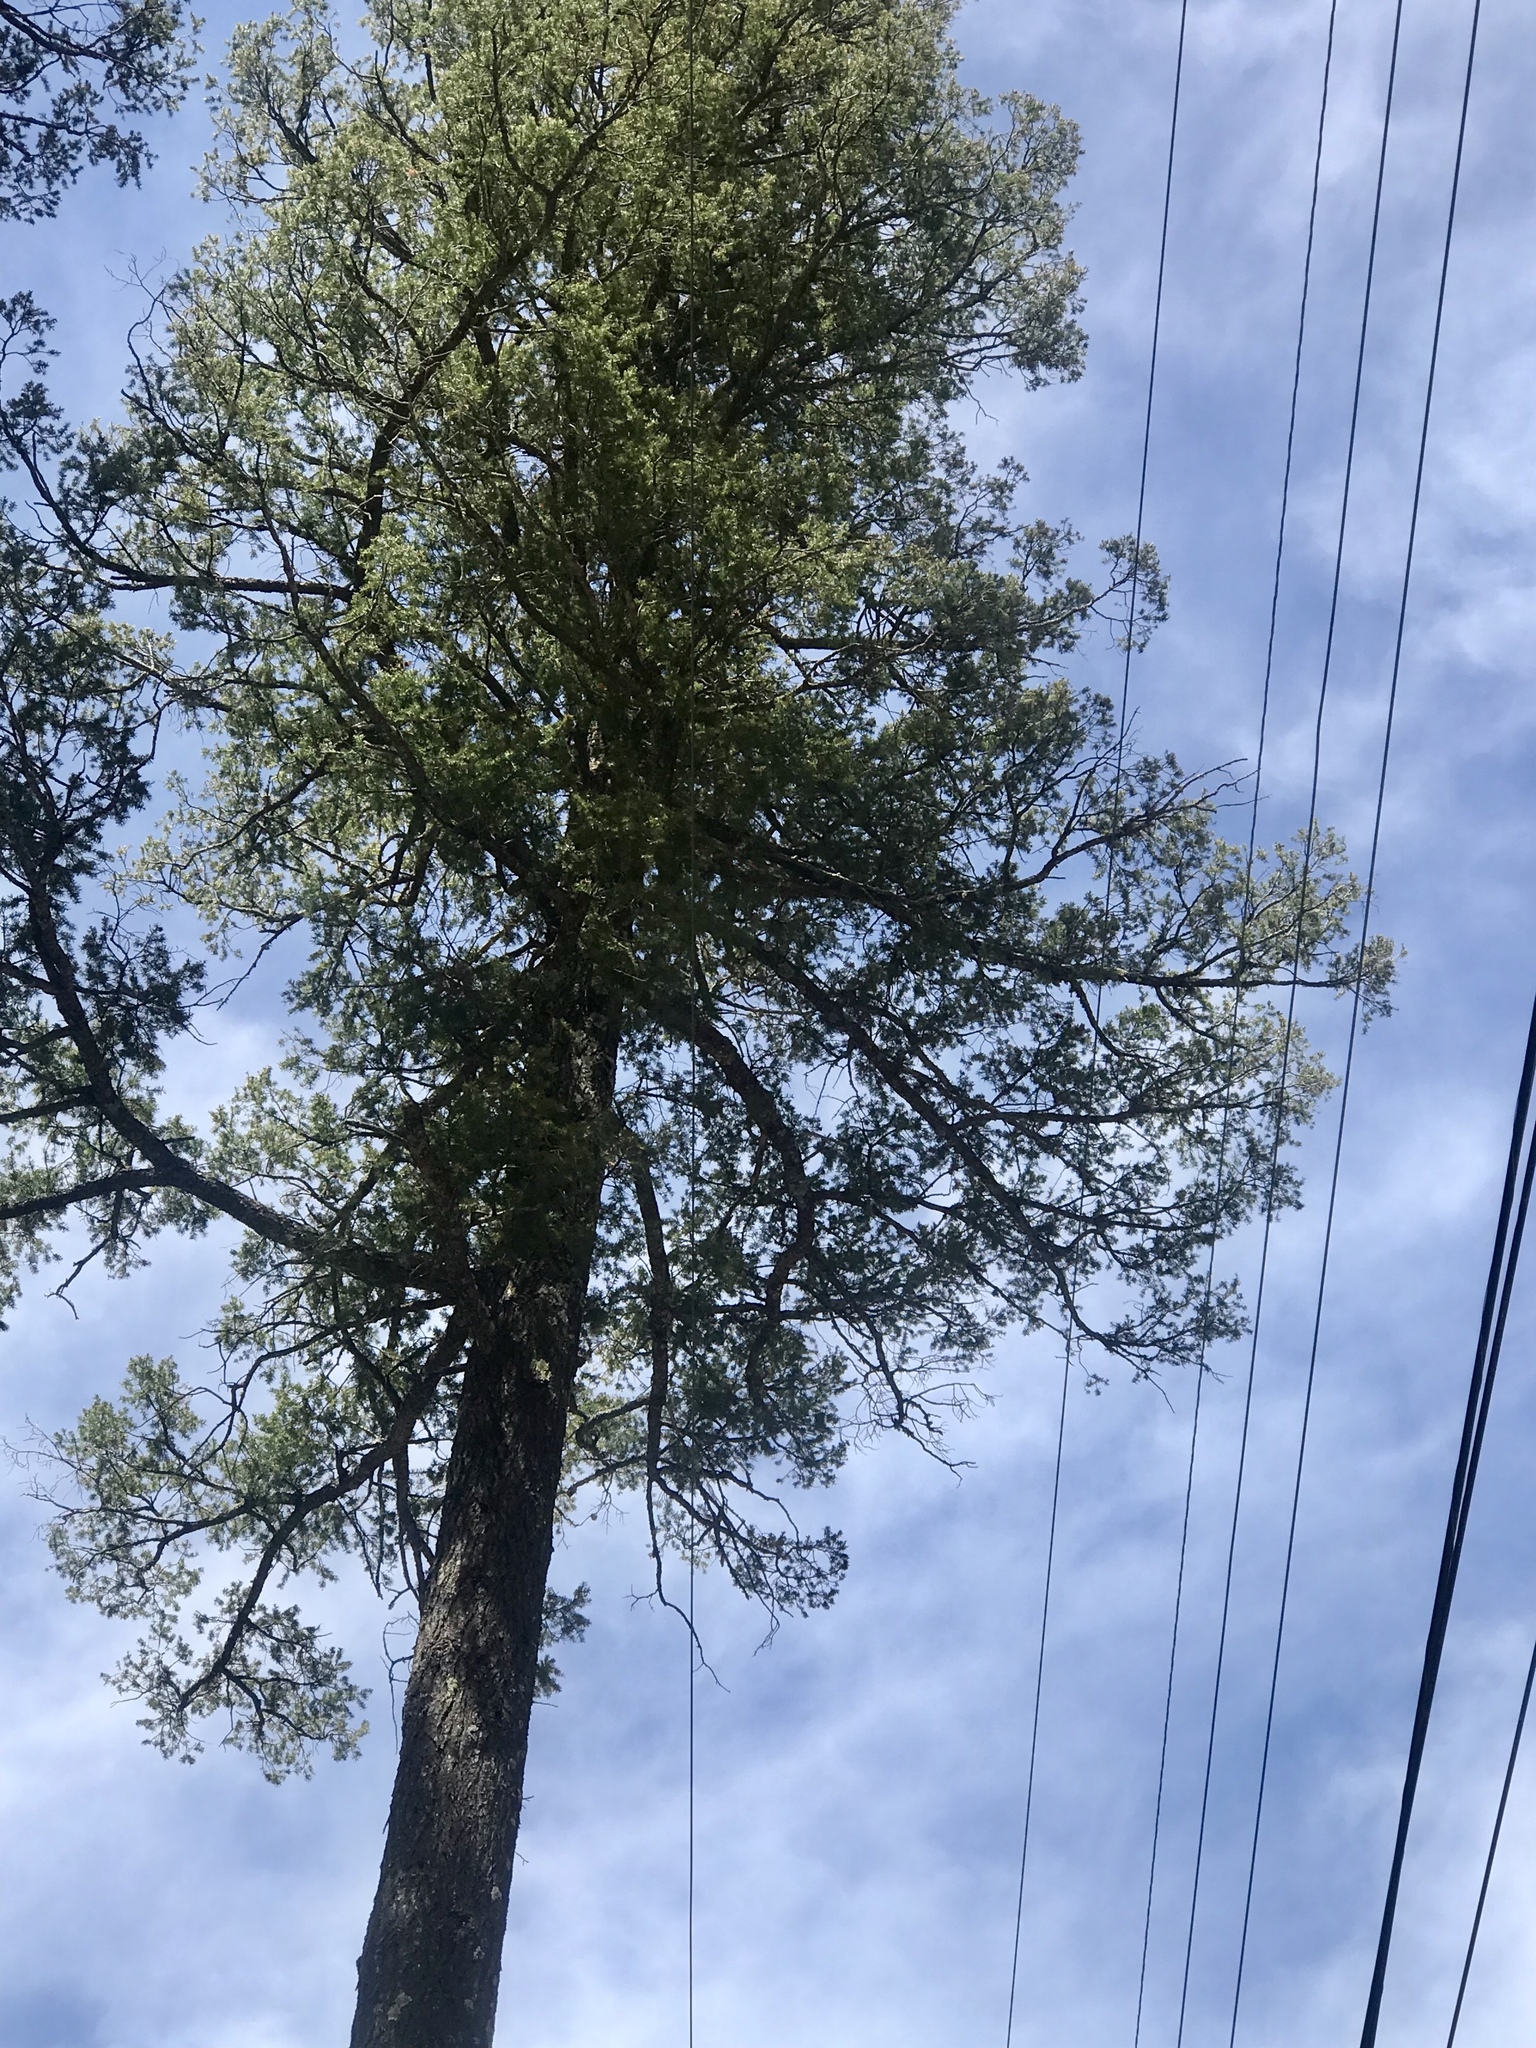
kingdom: Plantae
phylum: Tracheophyta
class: Pinopsida
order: Pinales
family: Pinaceae
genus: Pseudotsuga
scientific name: Pseudotsuga menziesii
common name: Douglas fir
